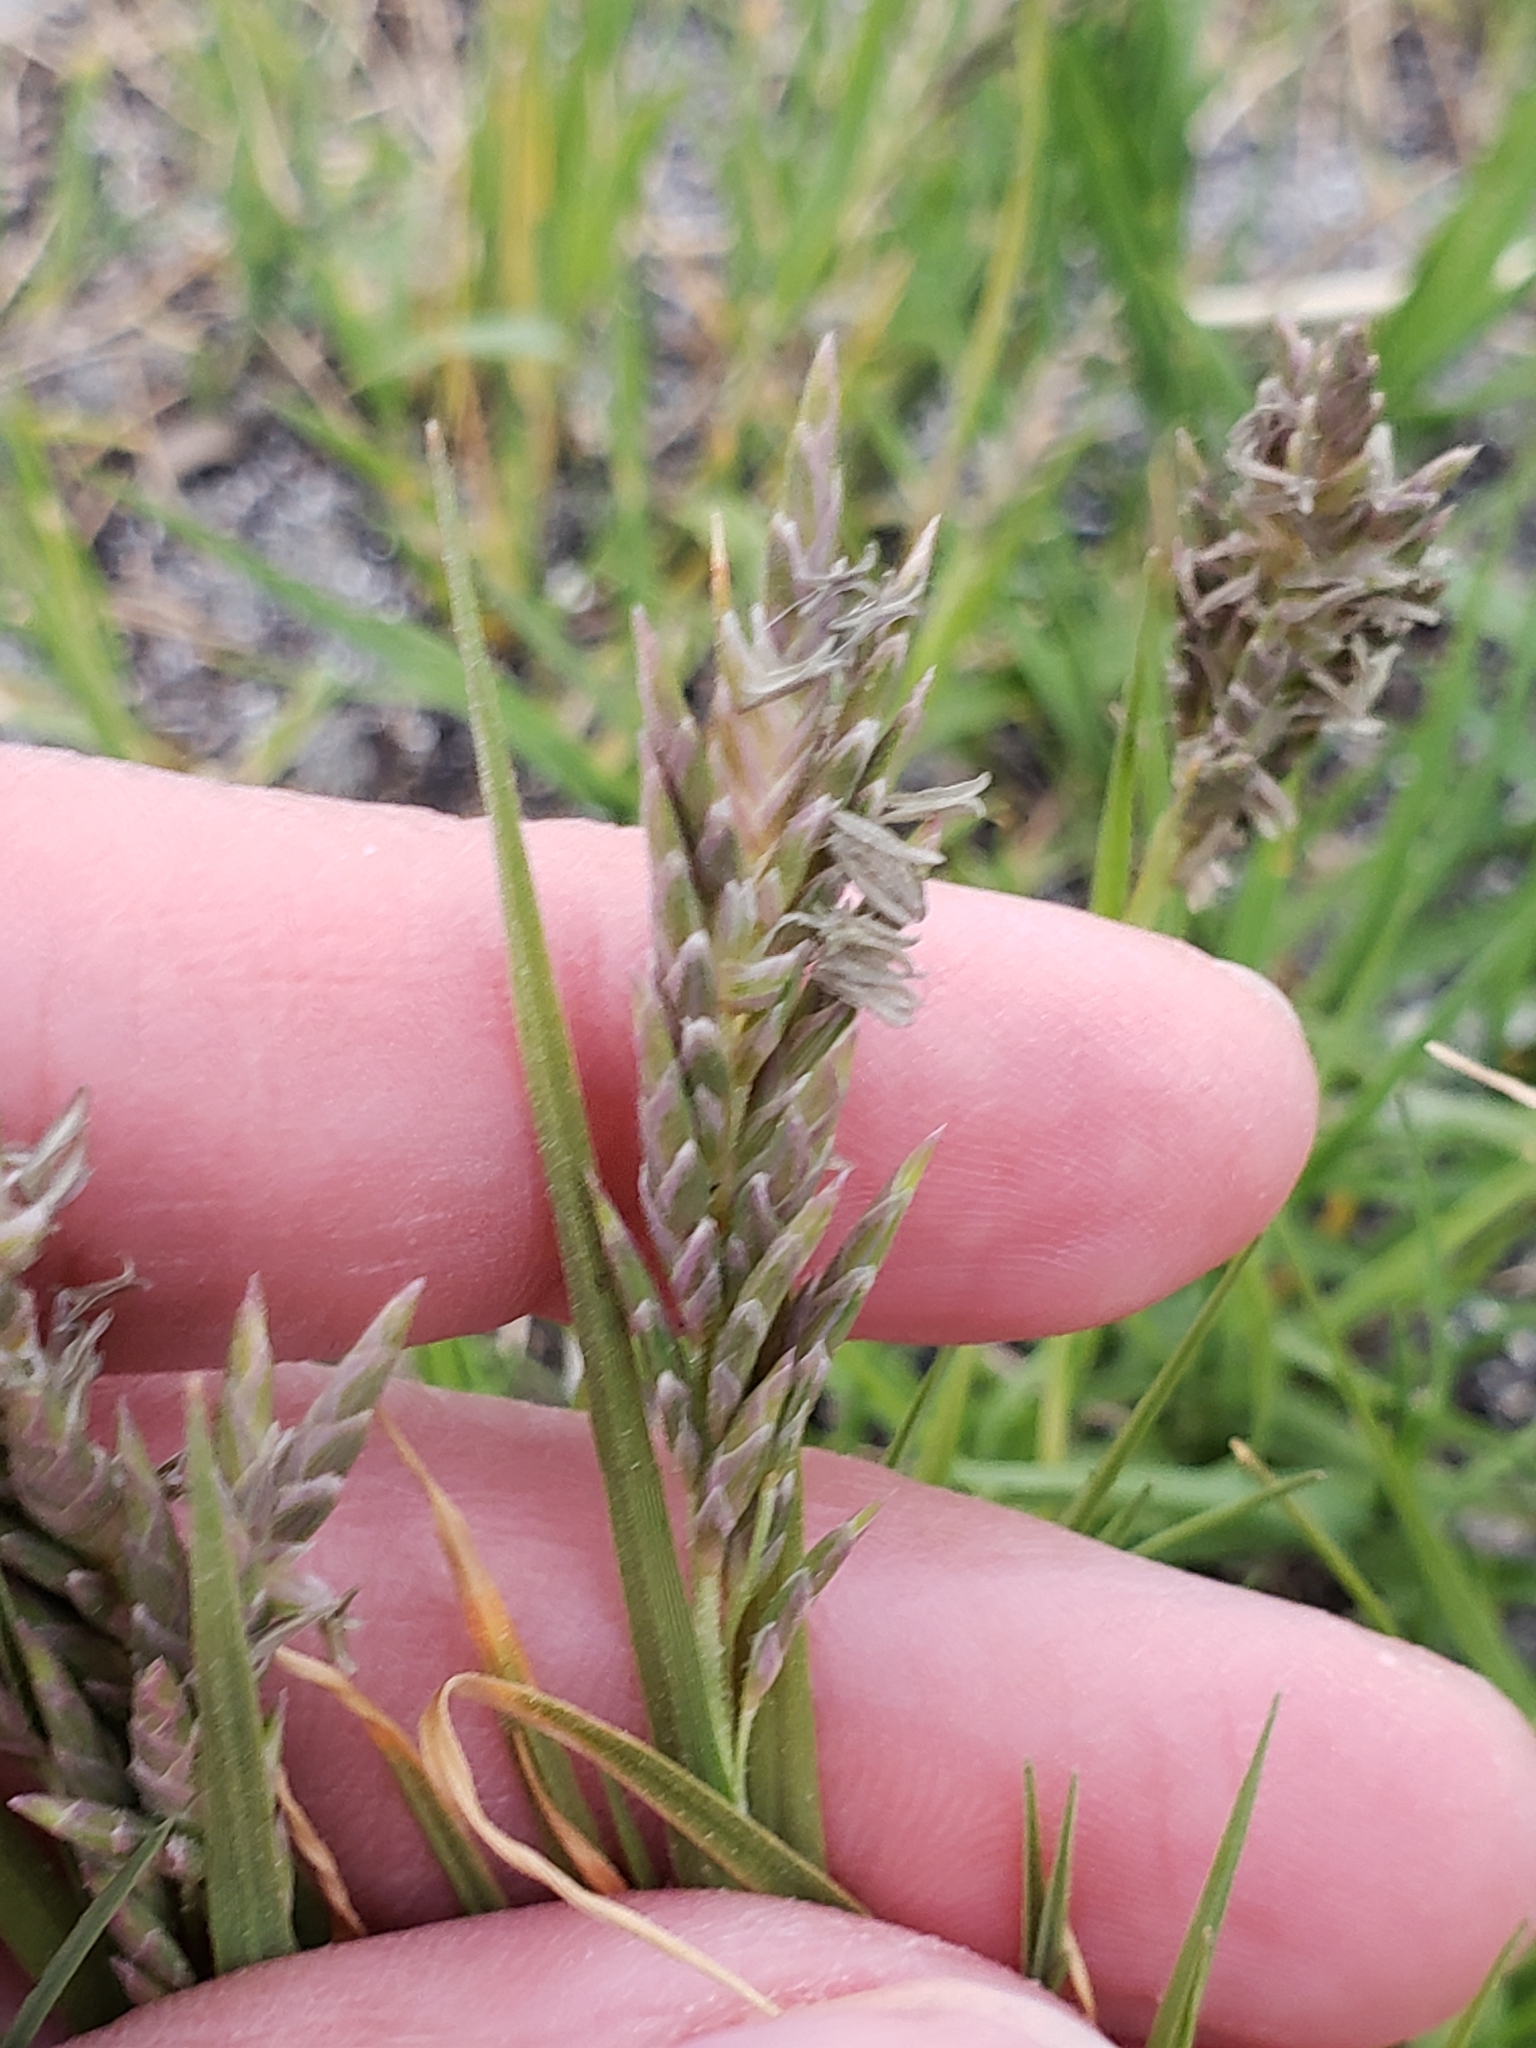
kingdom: Plantae
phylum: Tracheophyta
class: Liliopsida
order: Poales
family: Poaceae
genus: Distichlis
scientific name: Distichlis spicata
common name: Saltgrass
